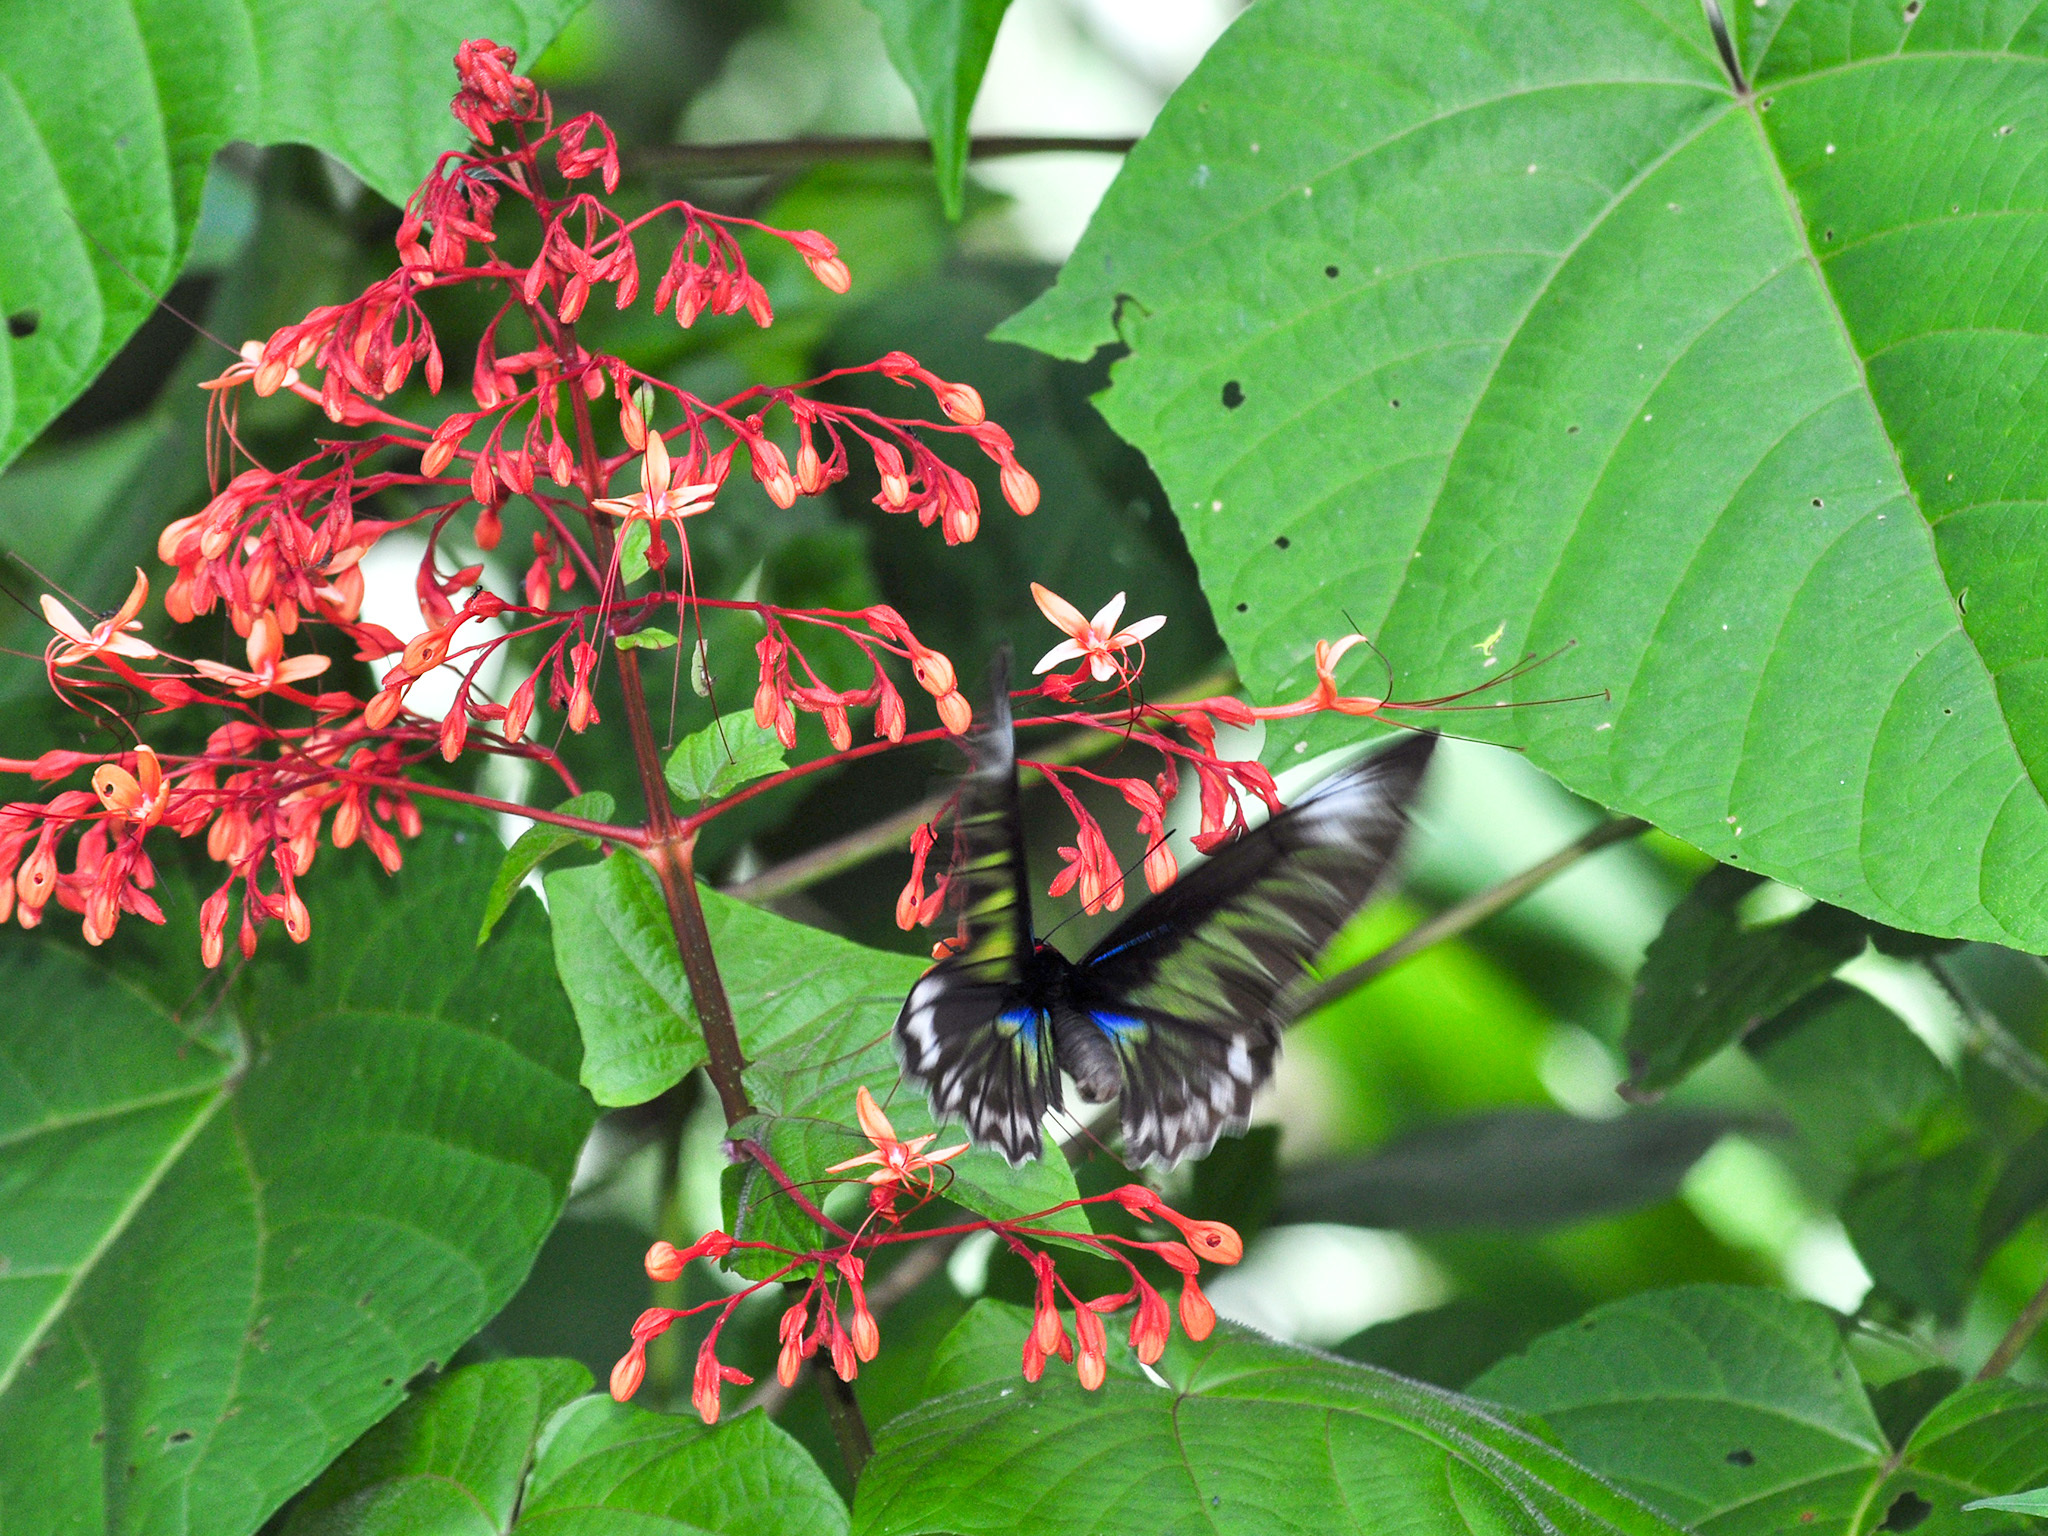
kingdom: Animalia
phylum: Arthropoda
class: Insecta
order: Lepidoptera
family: Papilionidae
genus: Trogonoptera
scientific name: Trogonoptera brookiana
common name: Raja brooke's birdwing
